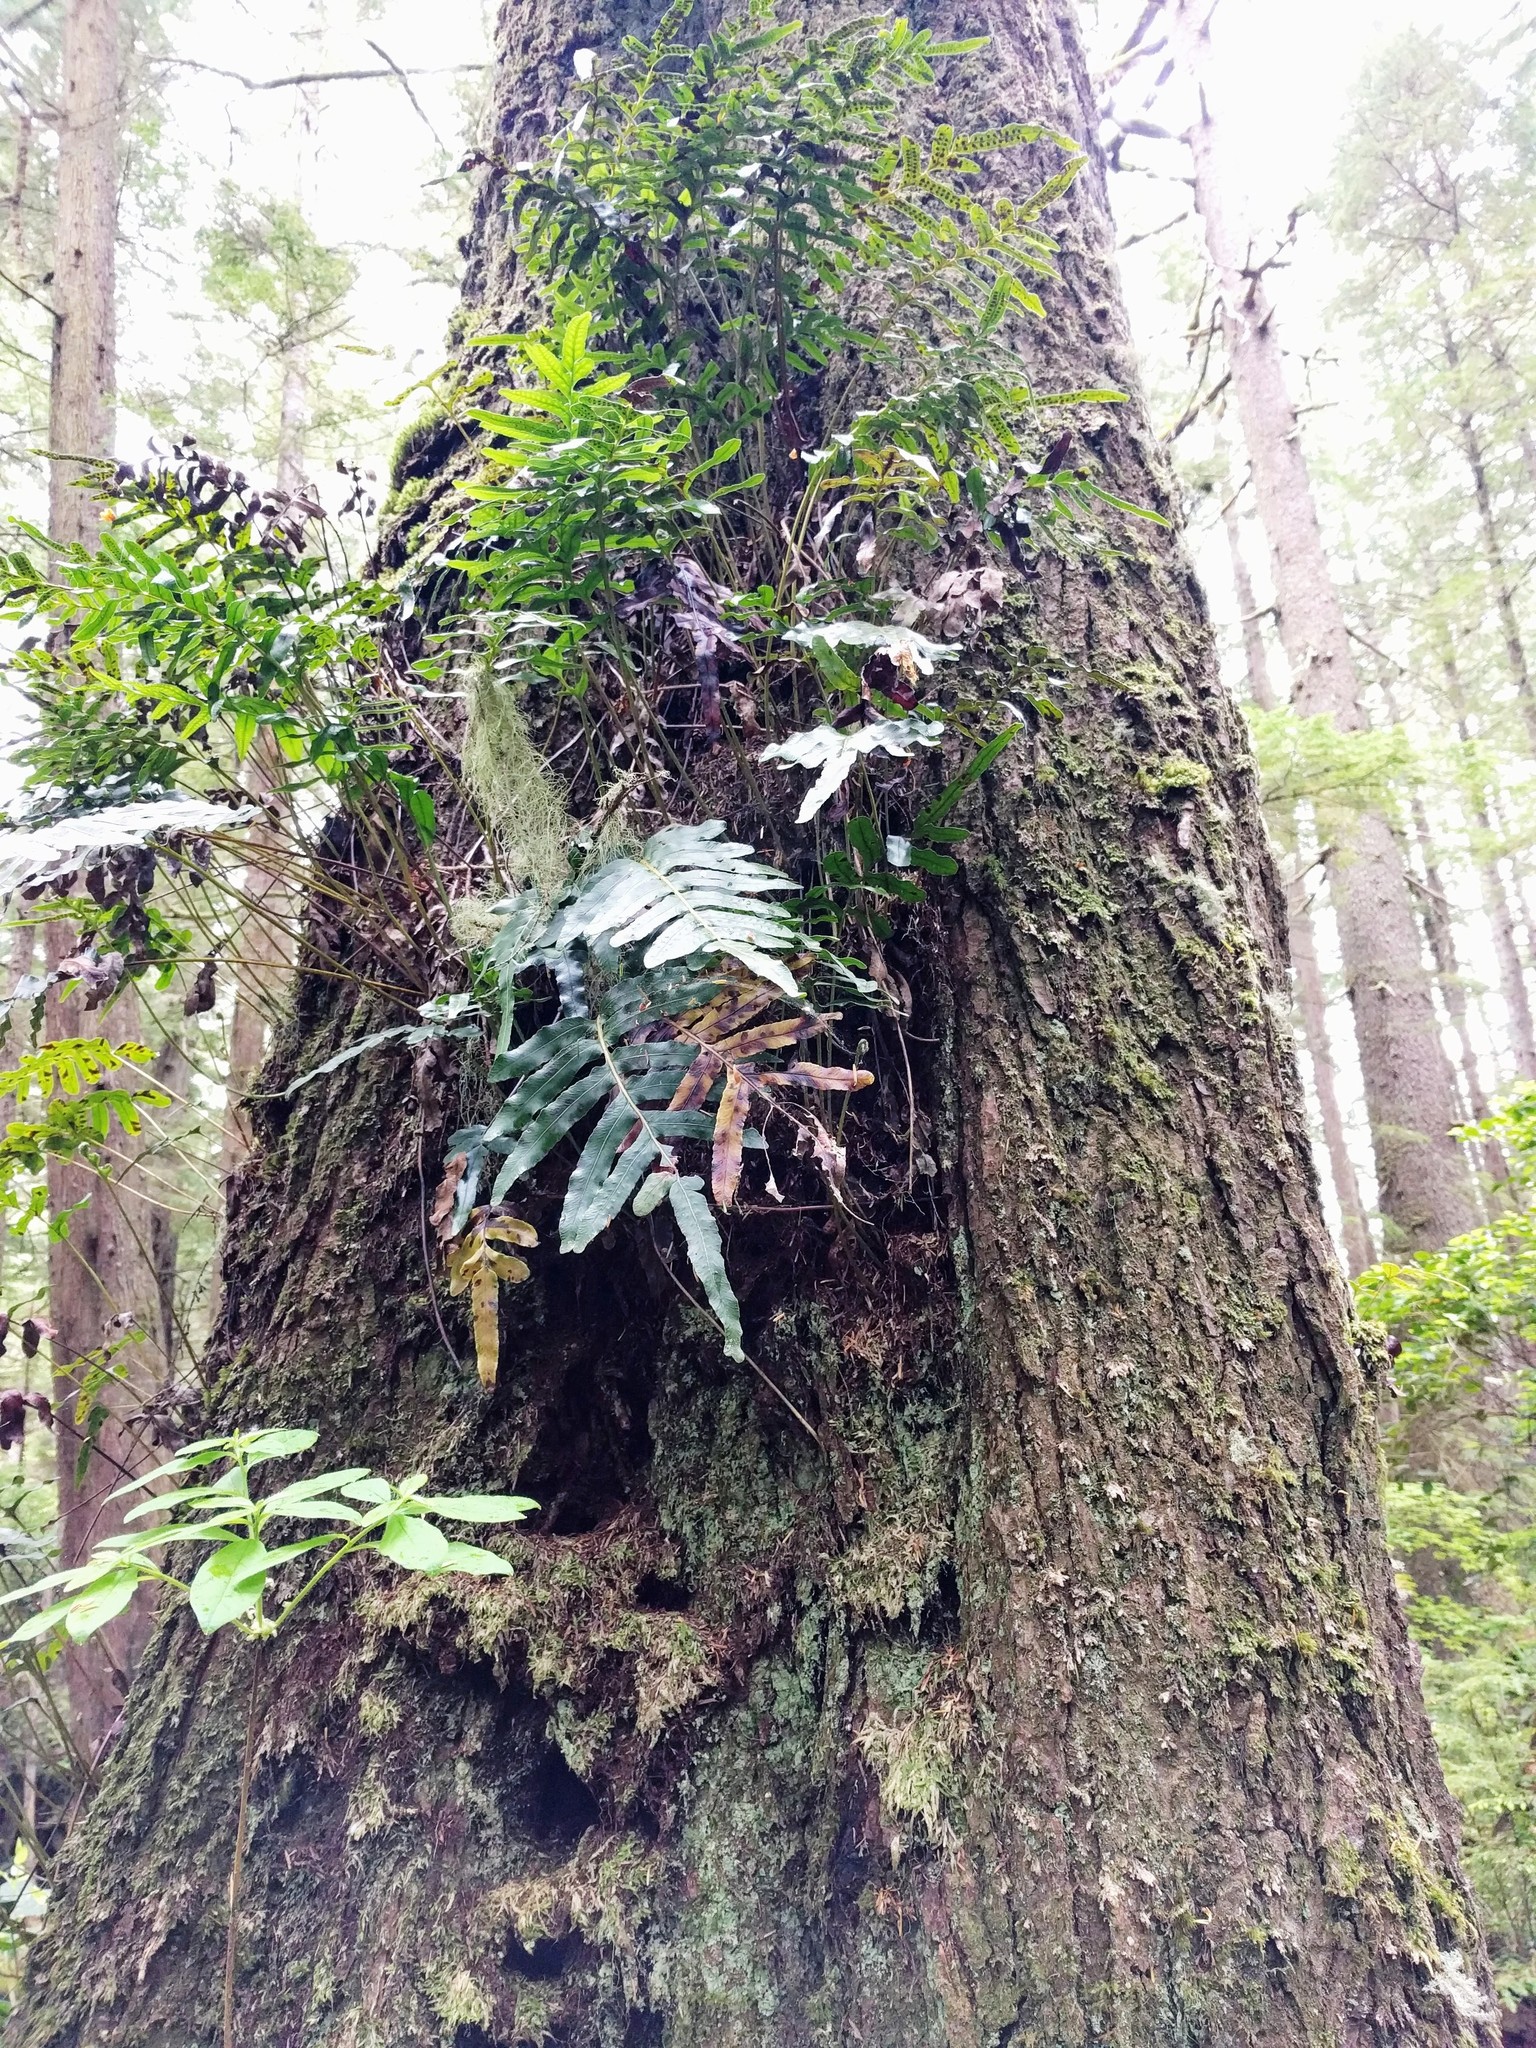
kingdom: Plantae
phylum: Tracheophyta
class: Polypodiopsida
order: Polypodiales
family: Polypodiaceae
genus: Polypodium
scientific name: Polypodium scouleri
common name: Scouler's polypody
